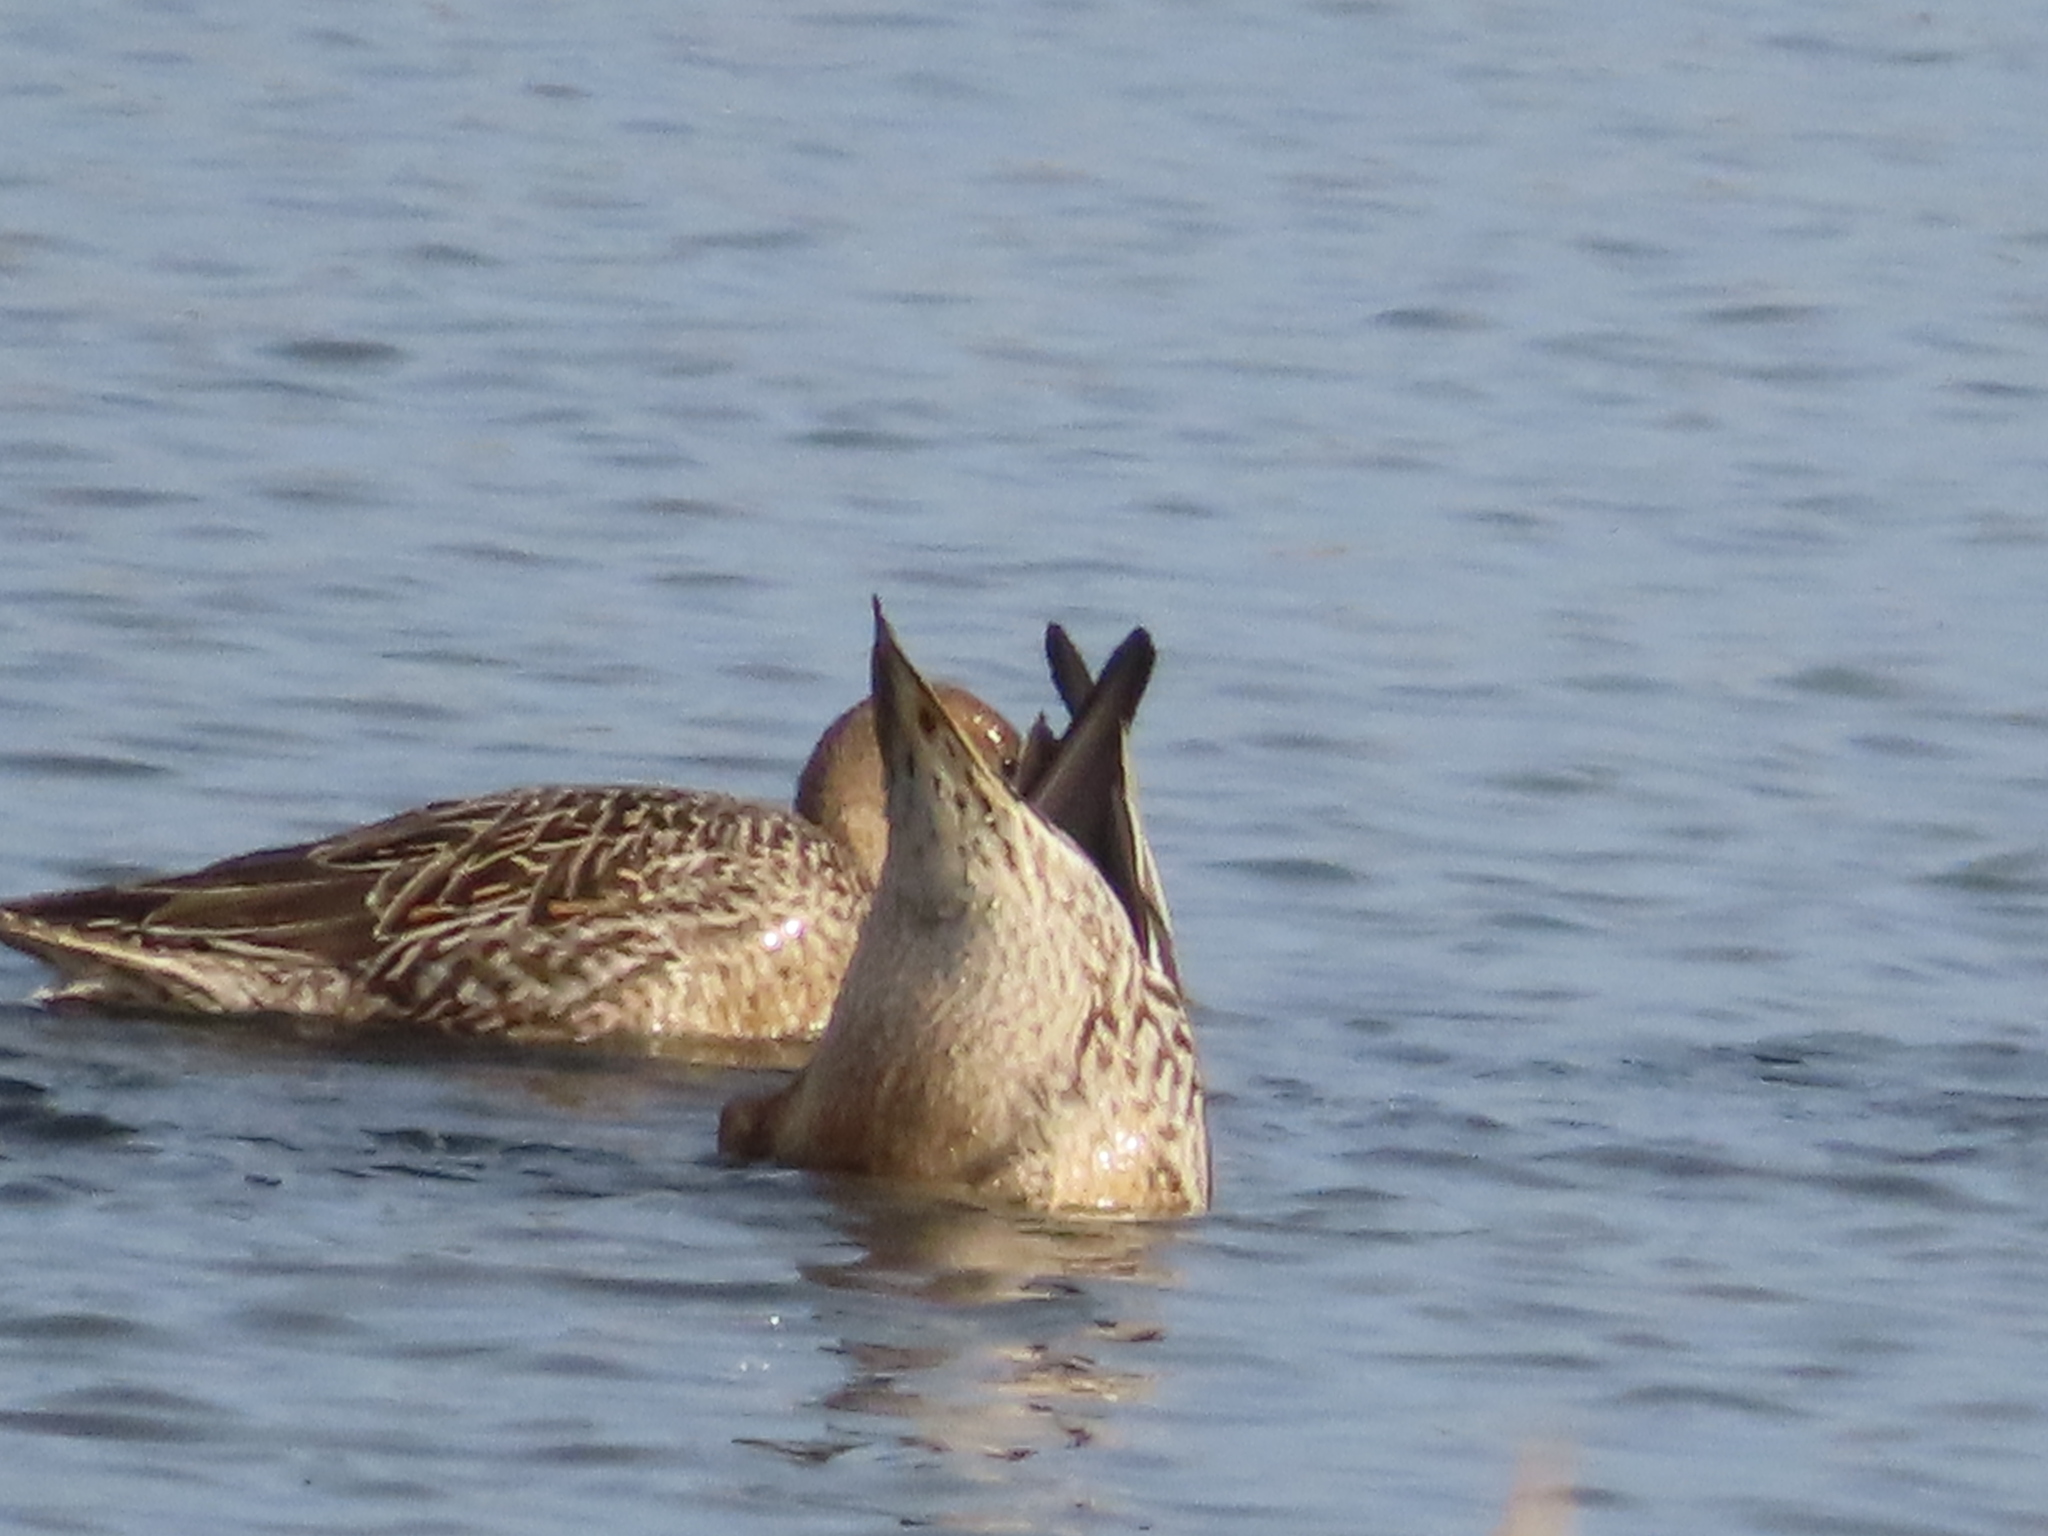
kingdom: Animalia
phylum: Chordata
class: Aves
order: Anseriformes
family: Anatidae
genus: Anas
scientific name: Anas acuta
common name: Northern pintail
